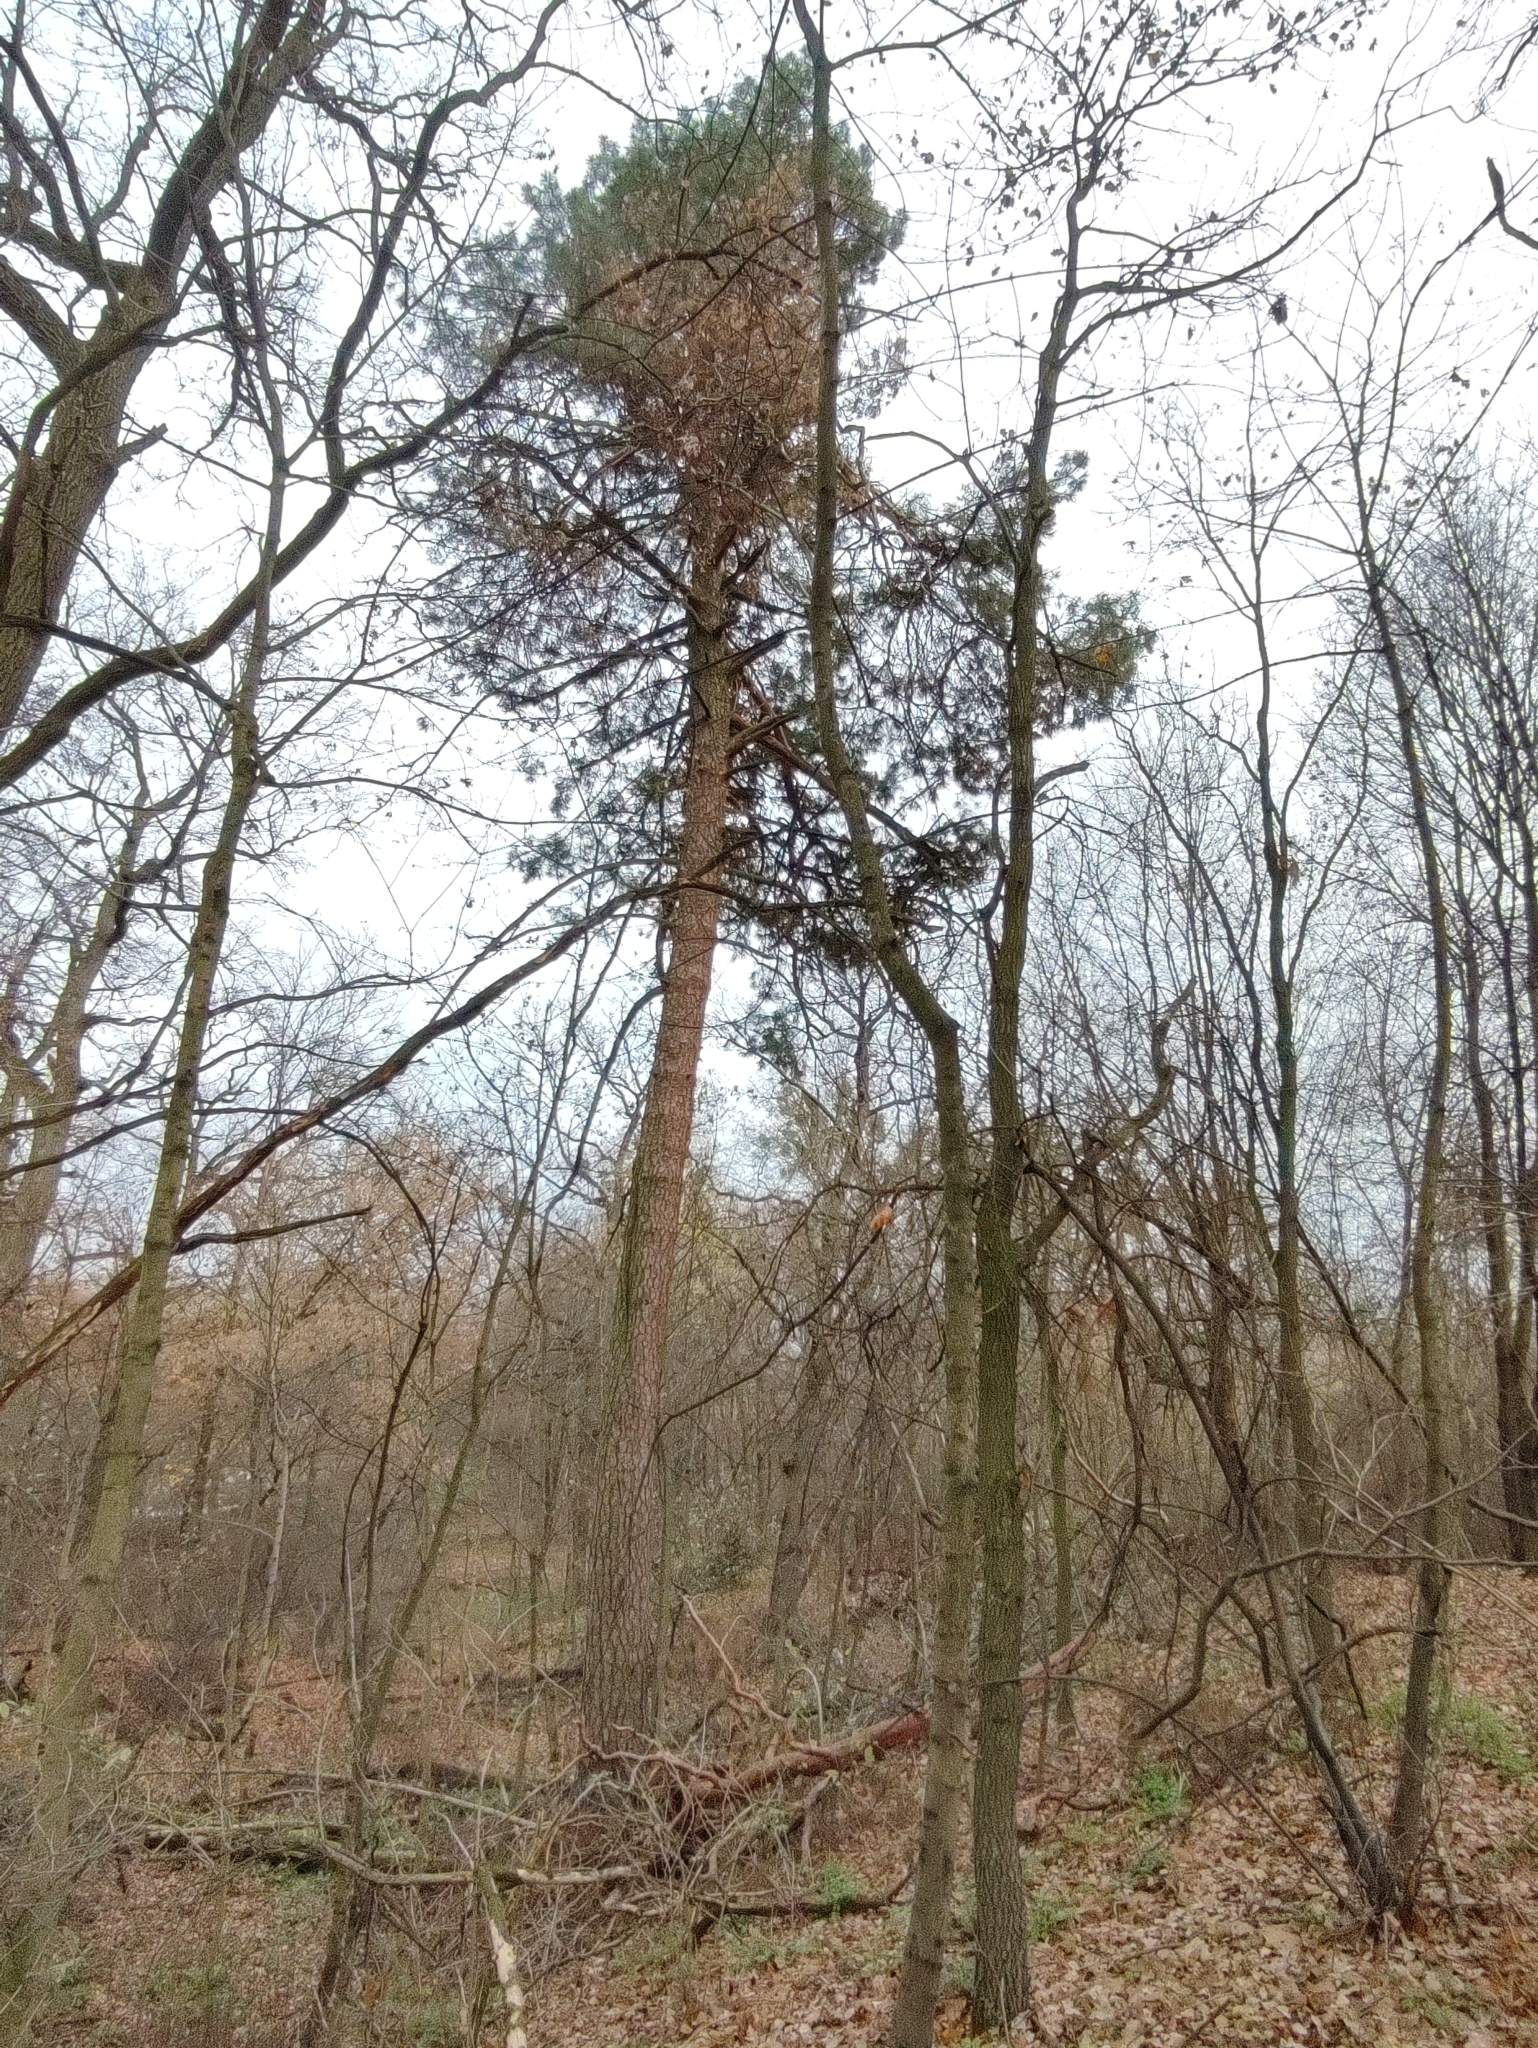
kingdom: Plantae
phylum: Tracheophyta
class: Pinopsida
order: Pinales
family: Pinaceae
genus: Pinus
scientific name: Pinus sylvestris
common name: Scots pine
